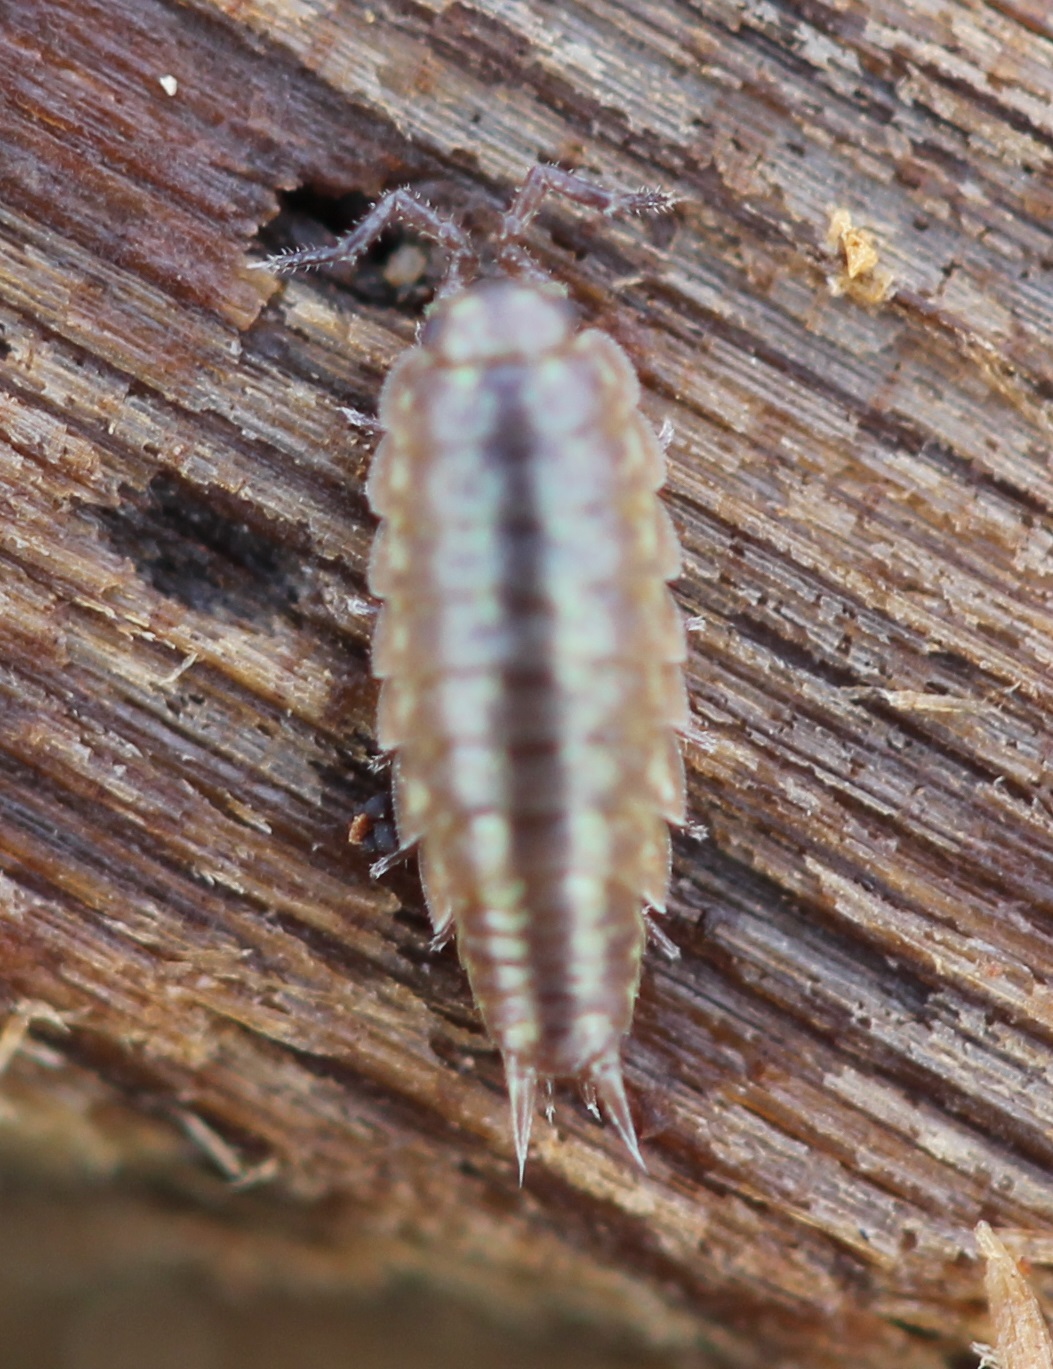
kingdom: Animalia
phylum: Arthropoda
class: Malacostraca
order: Isopoda
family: Halophilosciidae
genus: Littorophiloscia
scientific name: Littorophiloscia vittata
